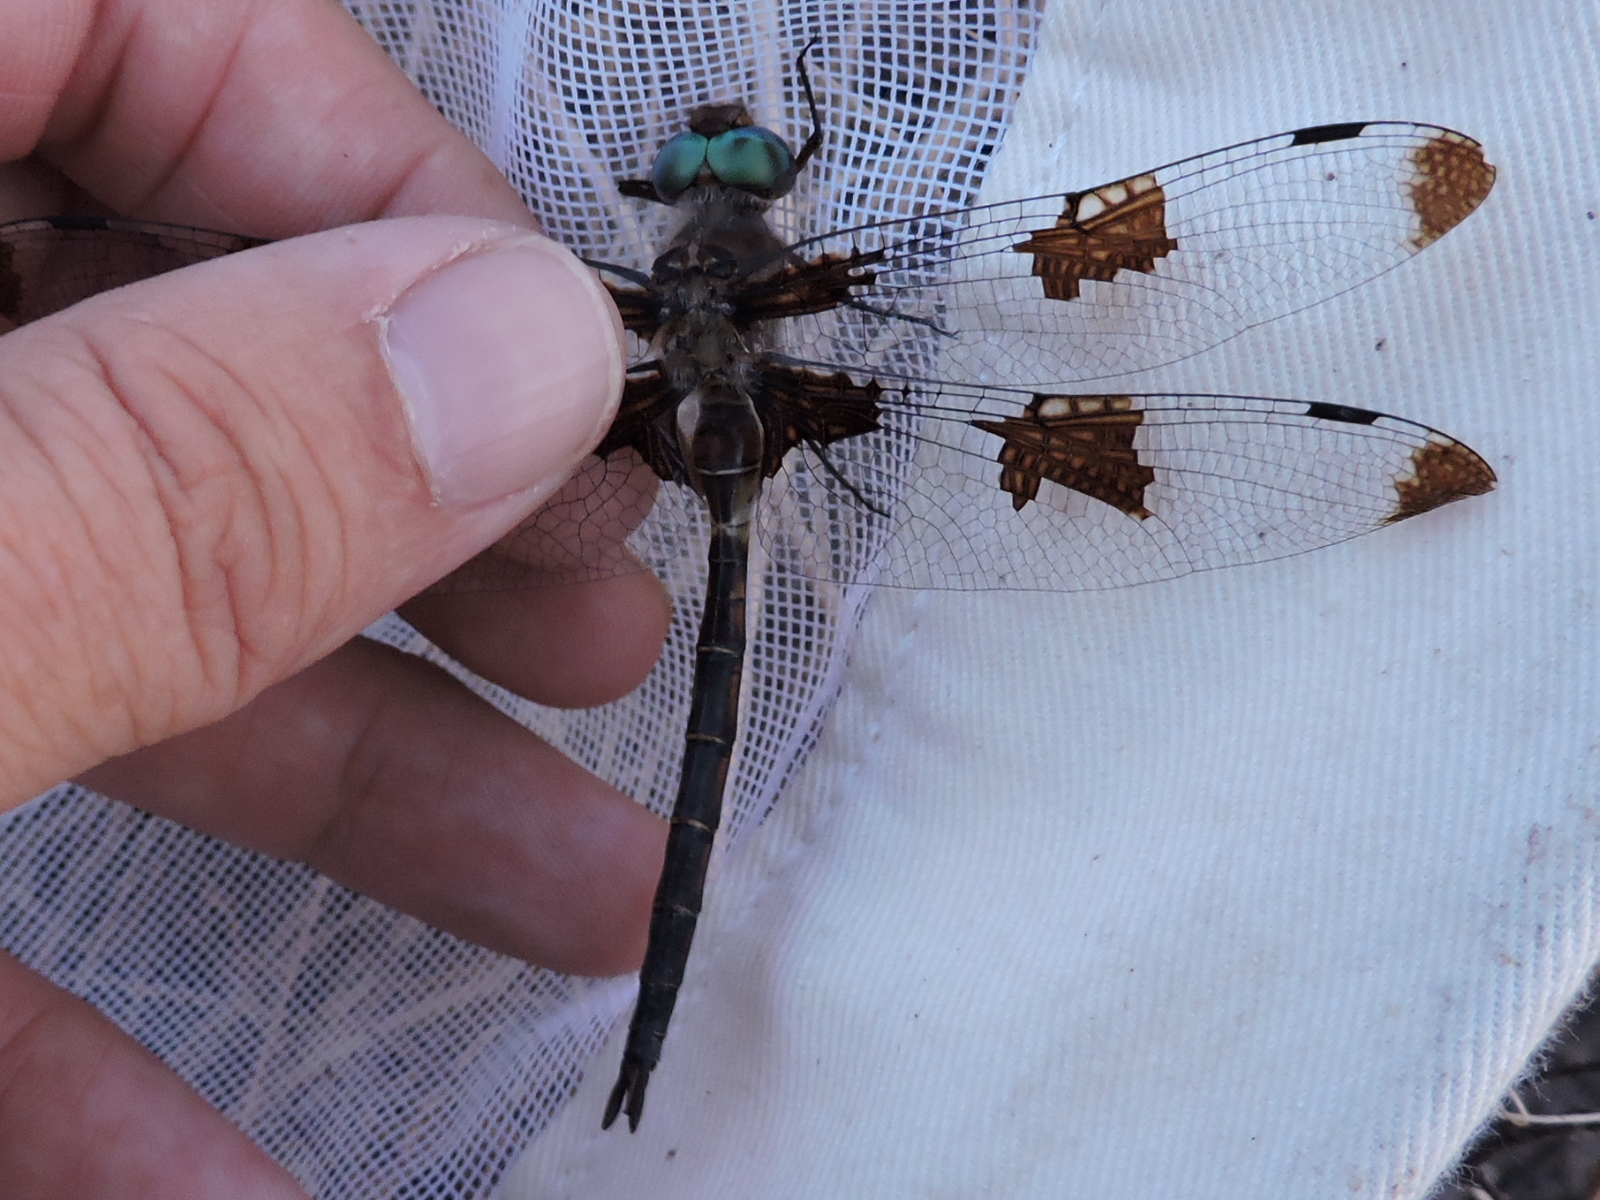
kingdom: Animalia
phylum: Arthropoda
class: Insecta
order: Odonata
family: Corduliidae
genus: Epitheca
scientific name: Epitheca princeps
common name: Prince baskettail
